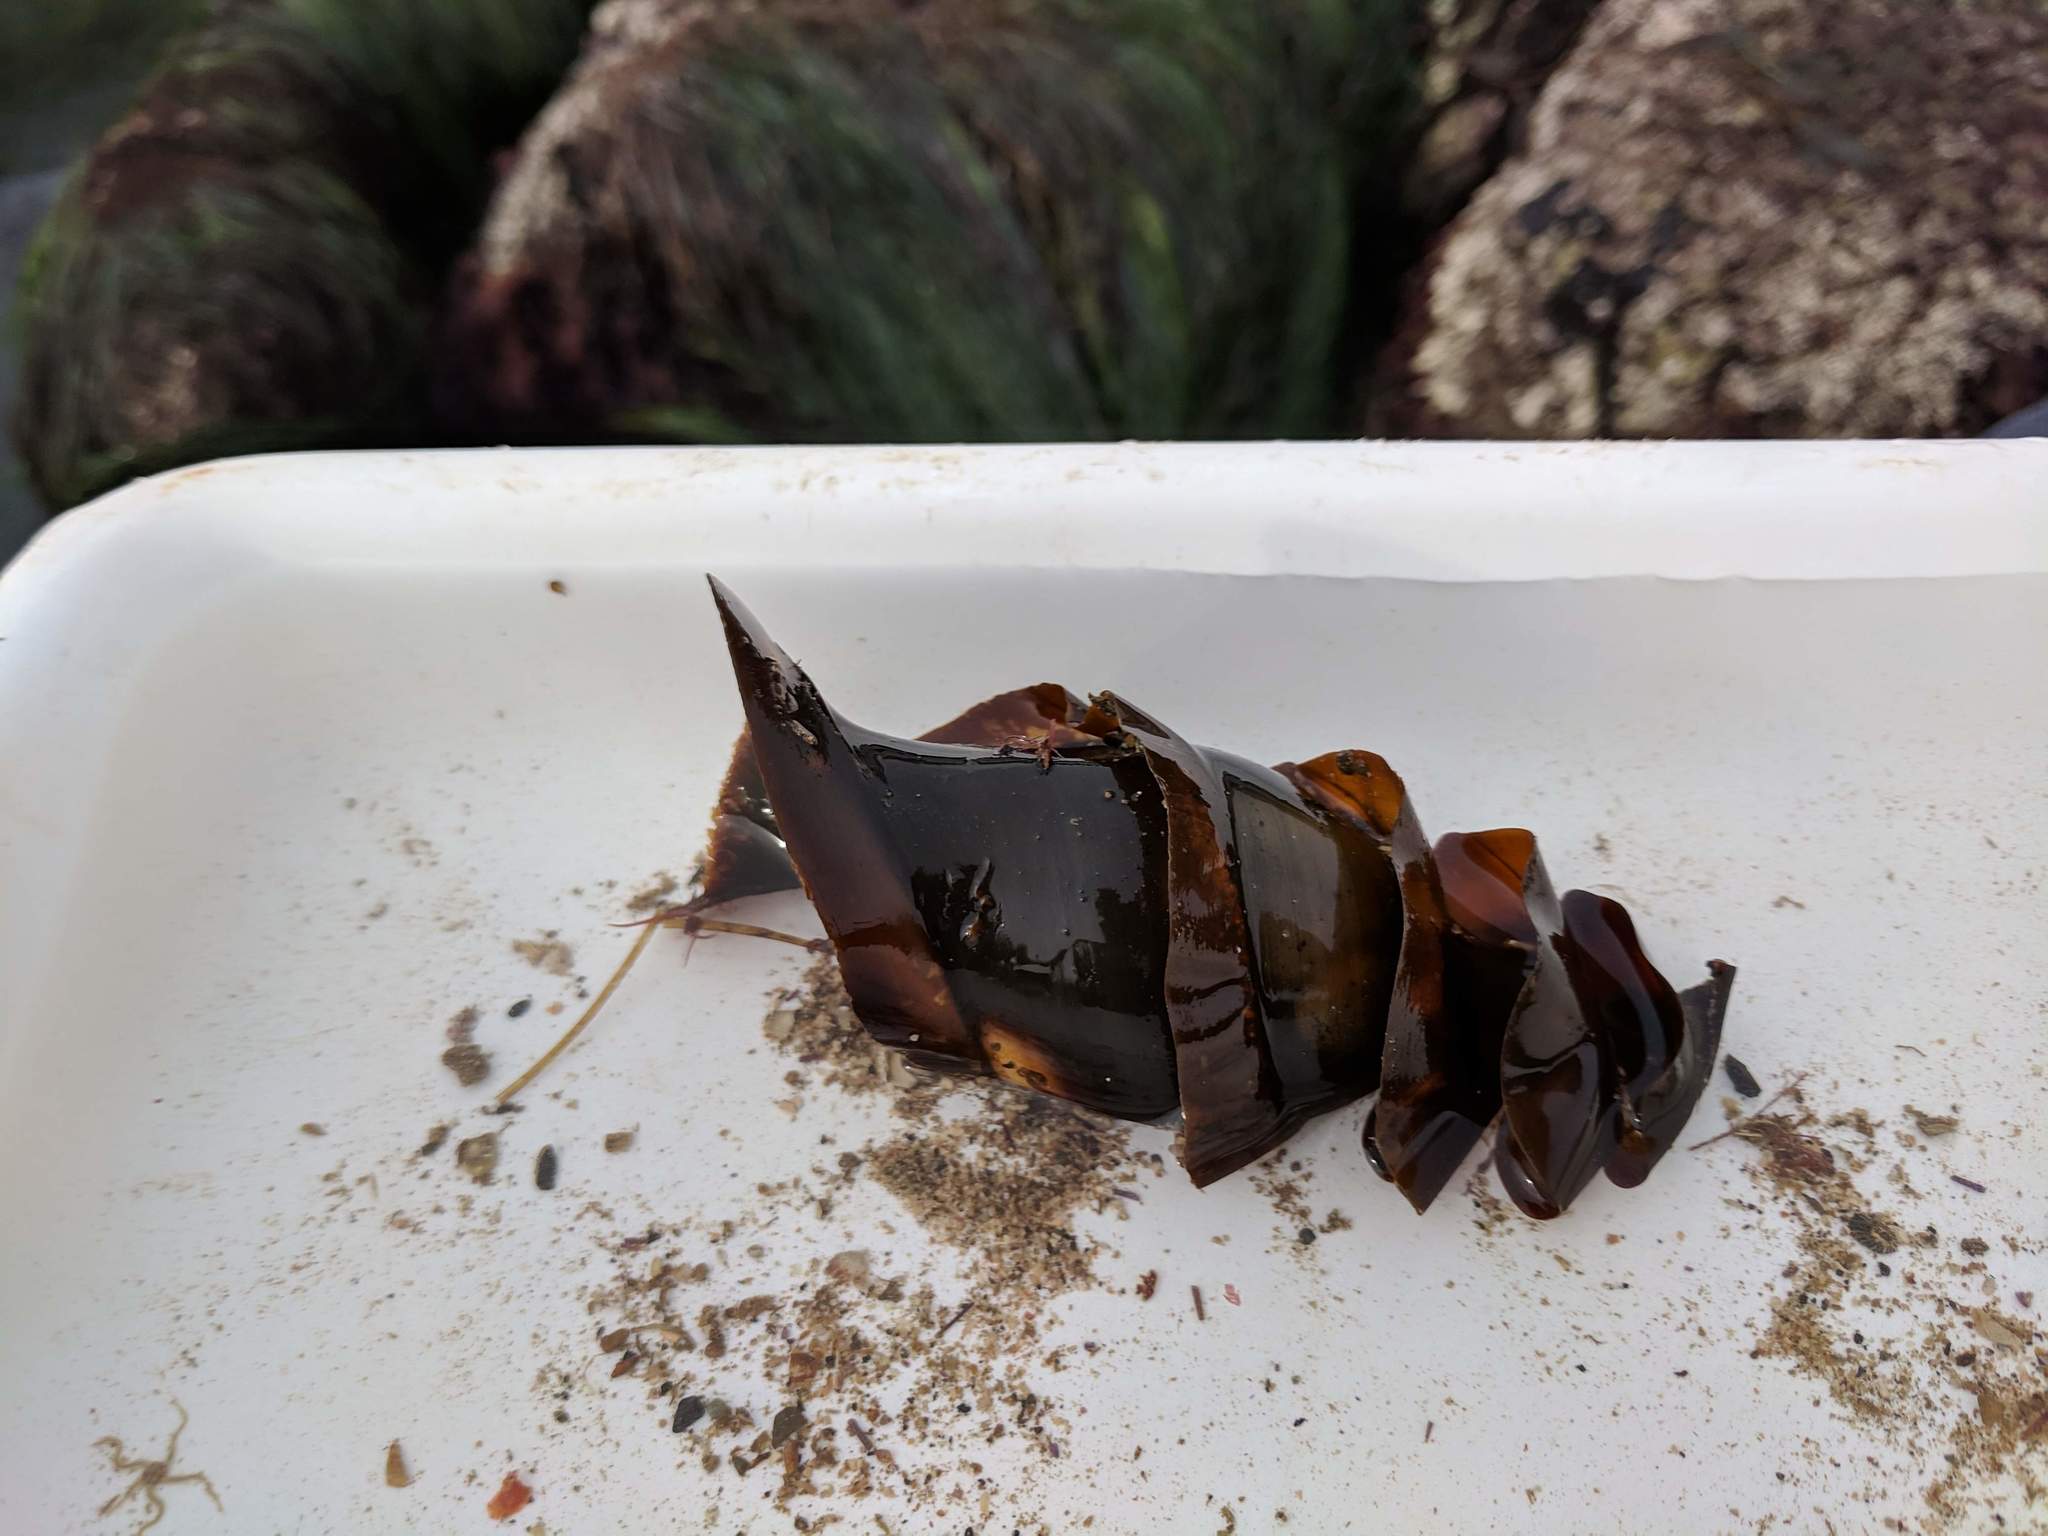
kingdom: Animalia
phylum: Chordata
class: Elasmobranchii
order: Heterodontiformes
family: Heterodontidae
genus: Heterodontus
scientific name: Heterodontus francisci
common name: Horn shark
